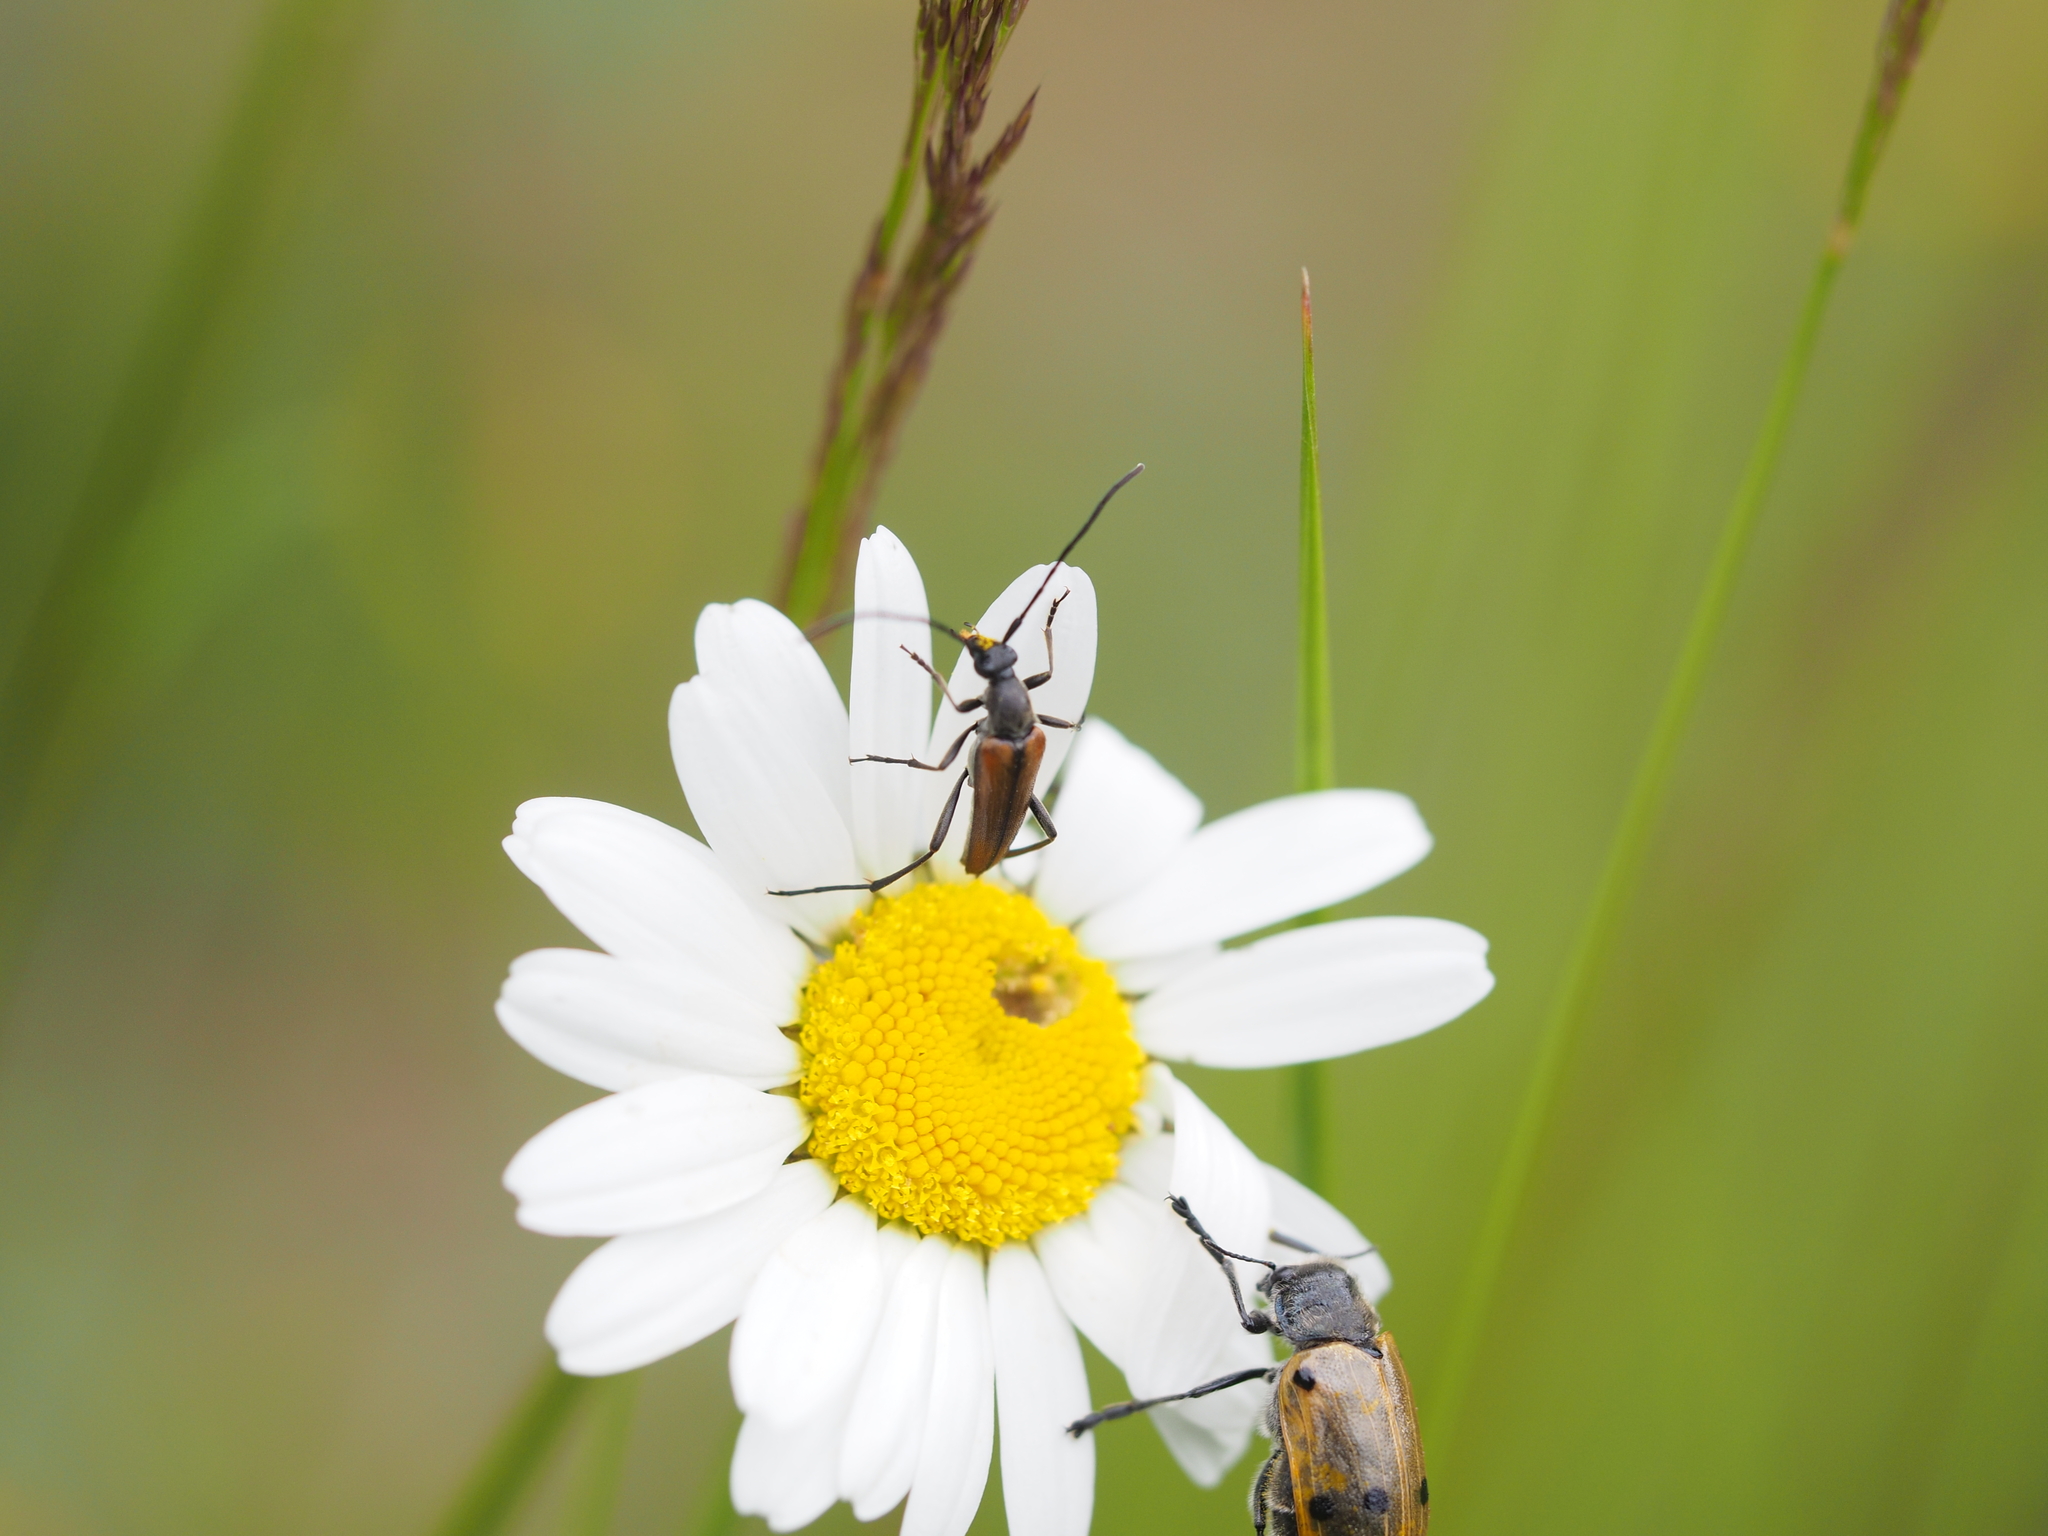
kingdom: Animalia
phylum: Arthropoda
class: Insecta
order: Coleoptera
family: Cerambycidae
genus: Stenurella
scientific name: Stenurella melanura
